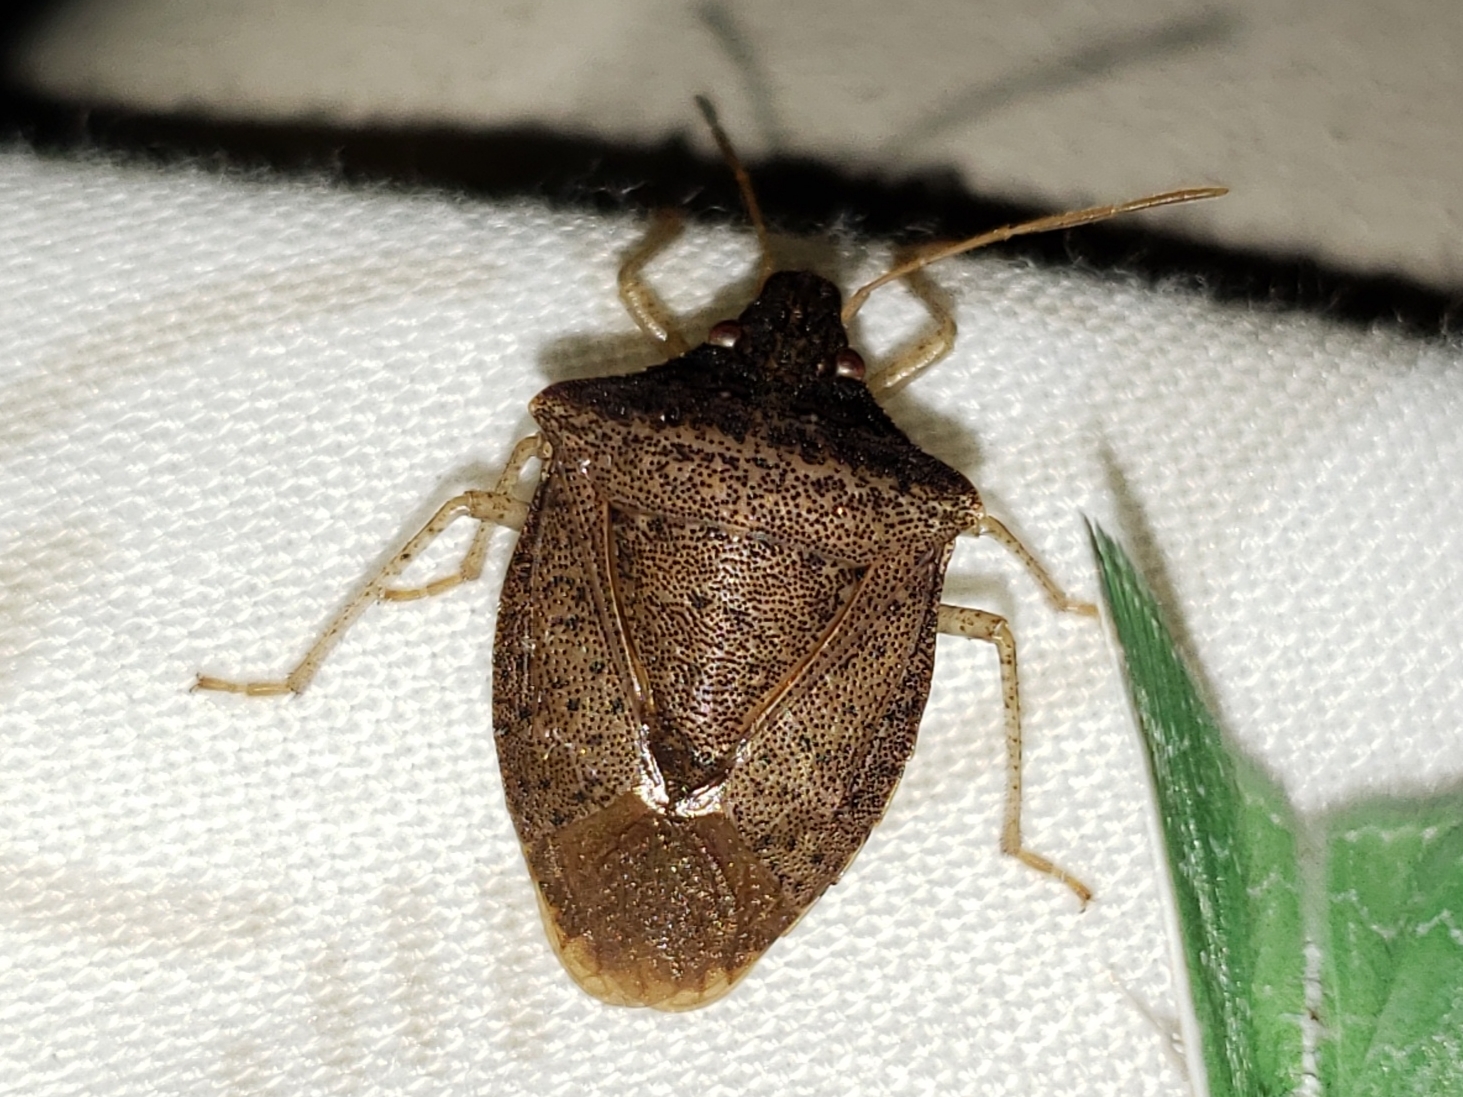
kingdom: Animalia
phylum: Arthropoda
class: Insecta
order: Hemiptera
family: Pentatomidae
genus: Euschistus
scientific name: Euschistus obscurus
